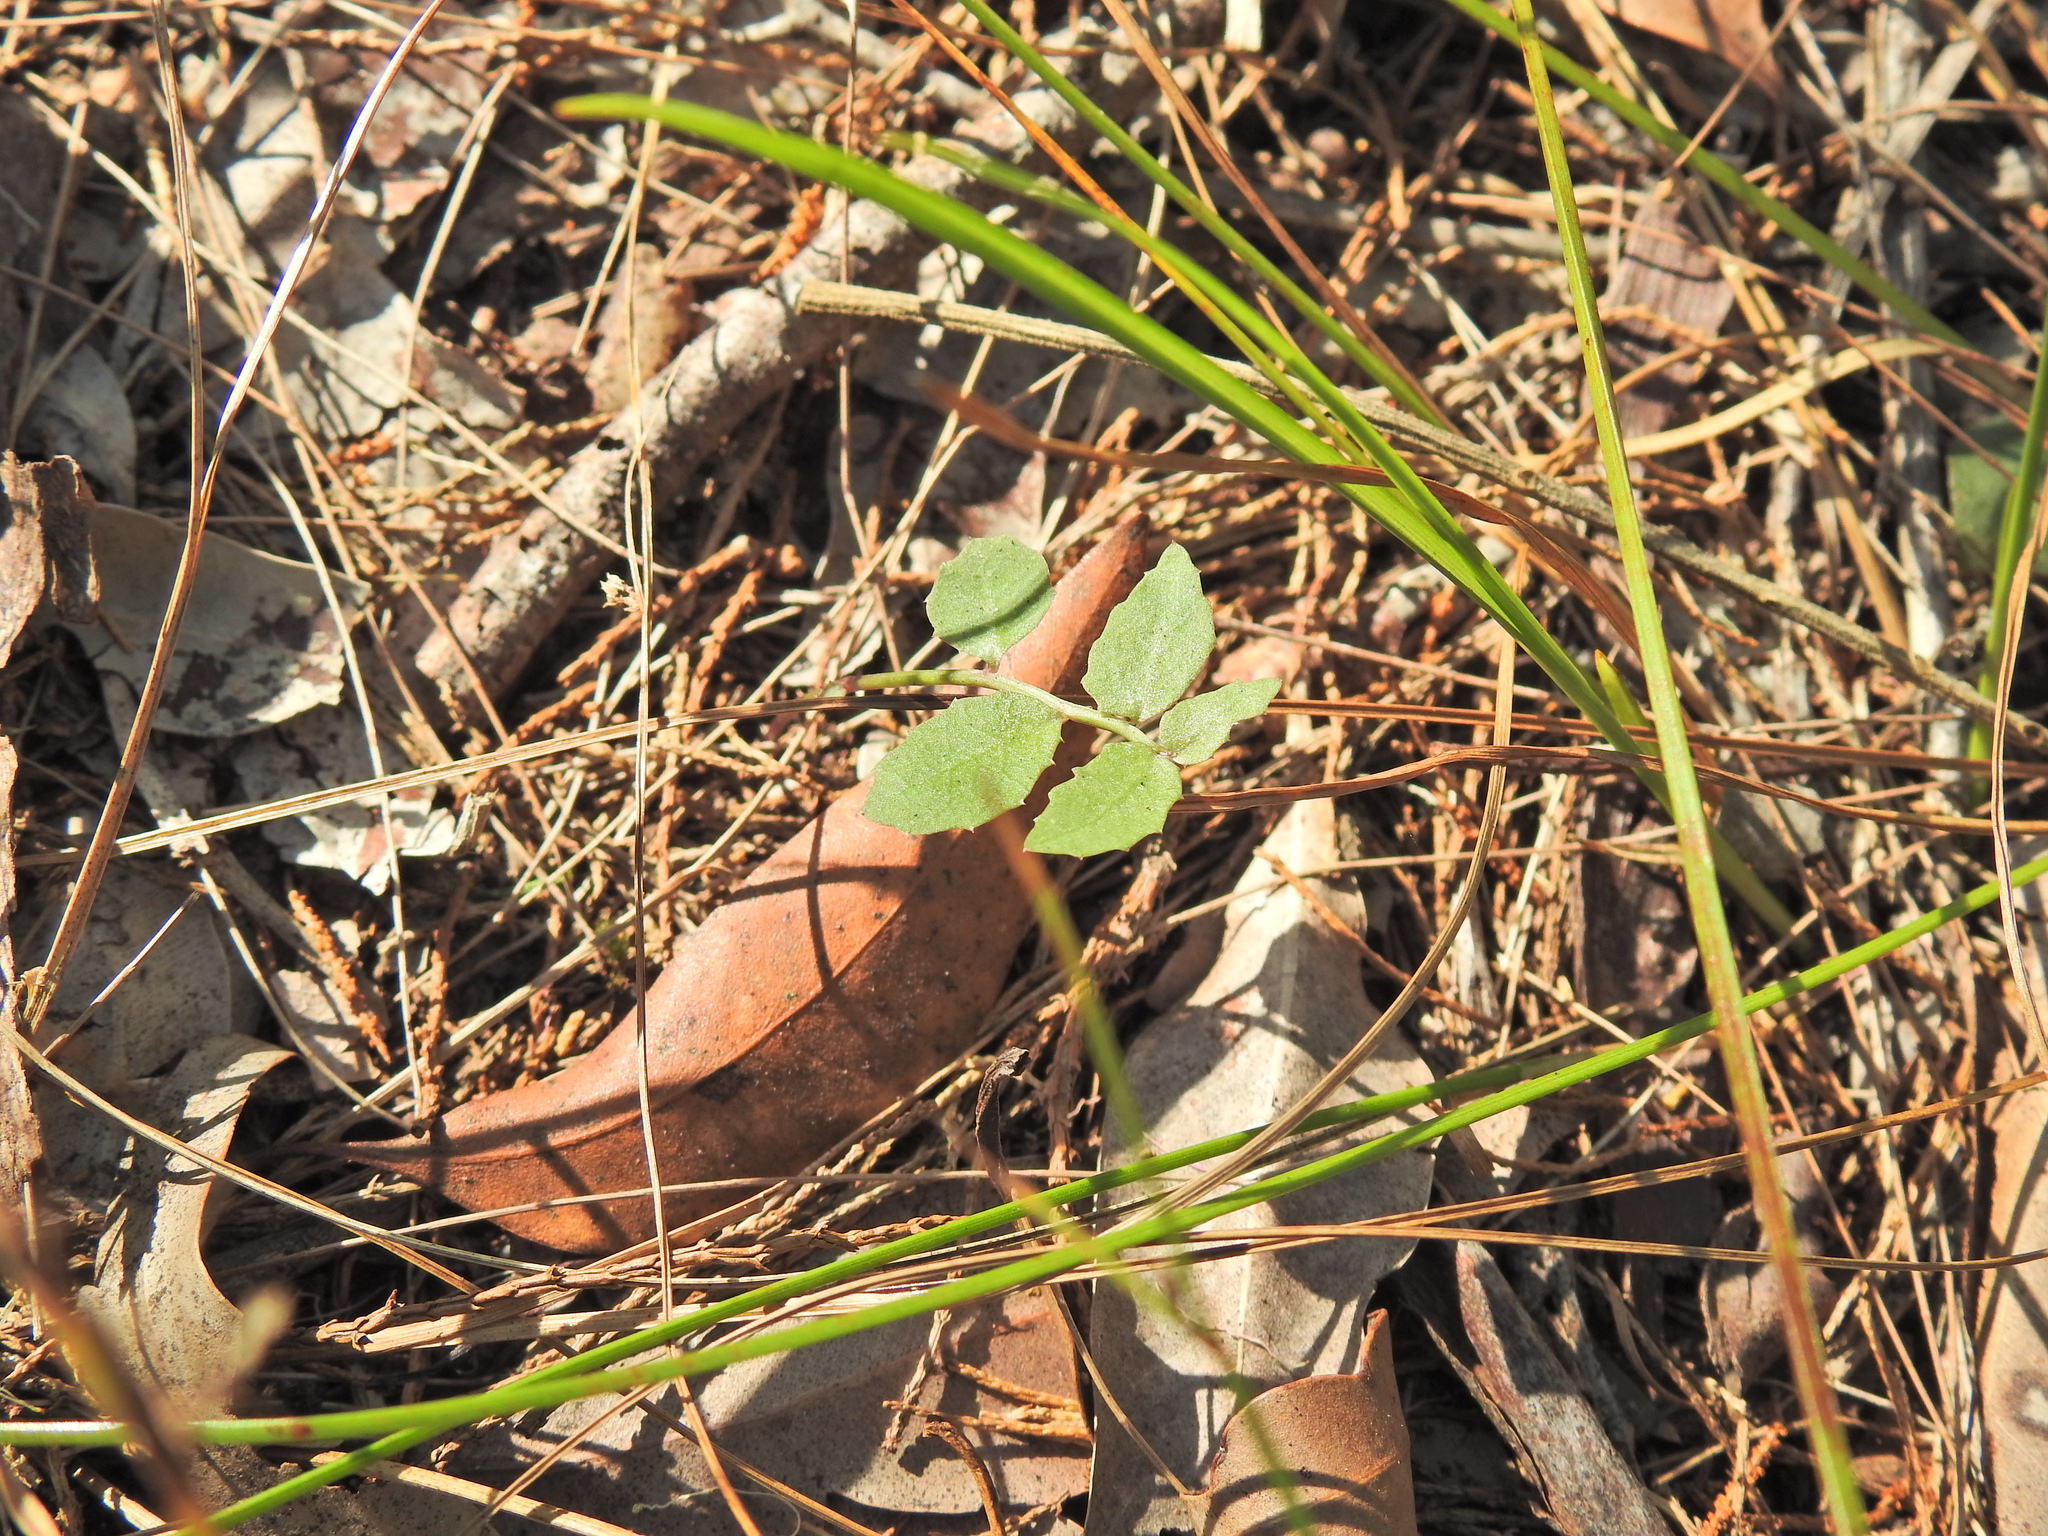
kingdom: Plantae
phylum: Tracheophyta
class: Magnoliopsida
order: Asterales
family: Campanulaceae
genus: Lobelia
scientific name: Lobelia purpurascens
